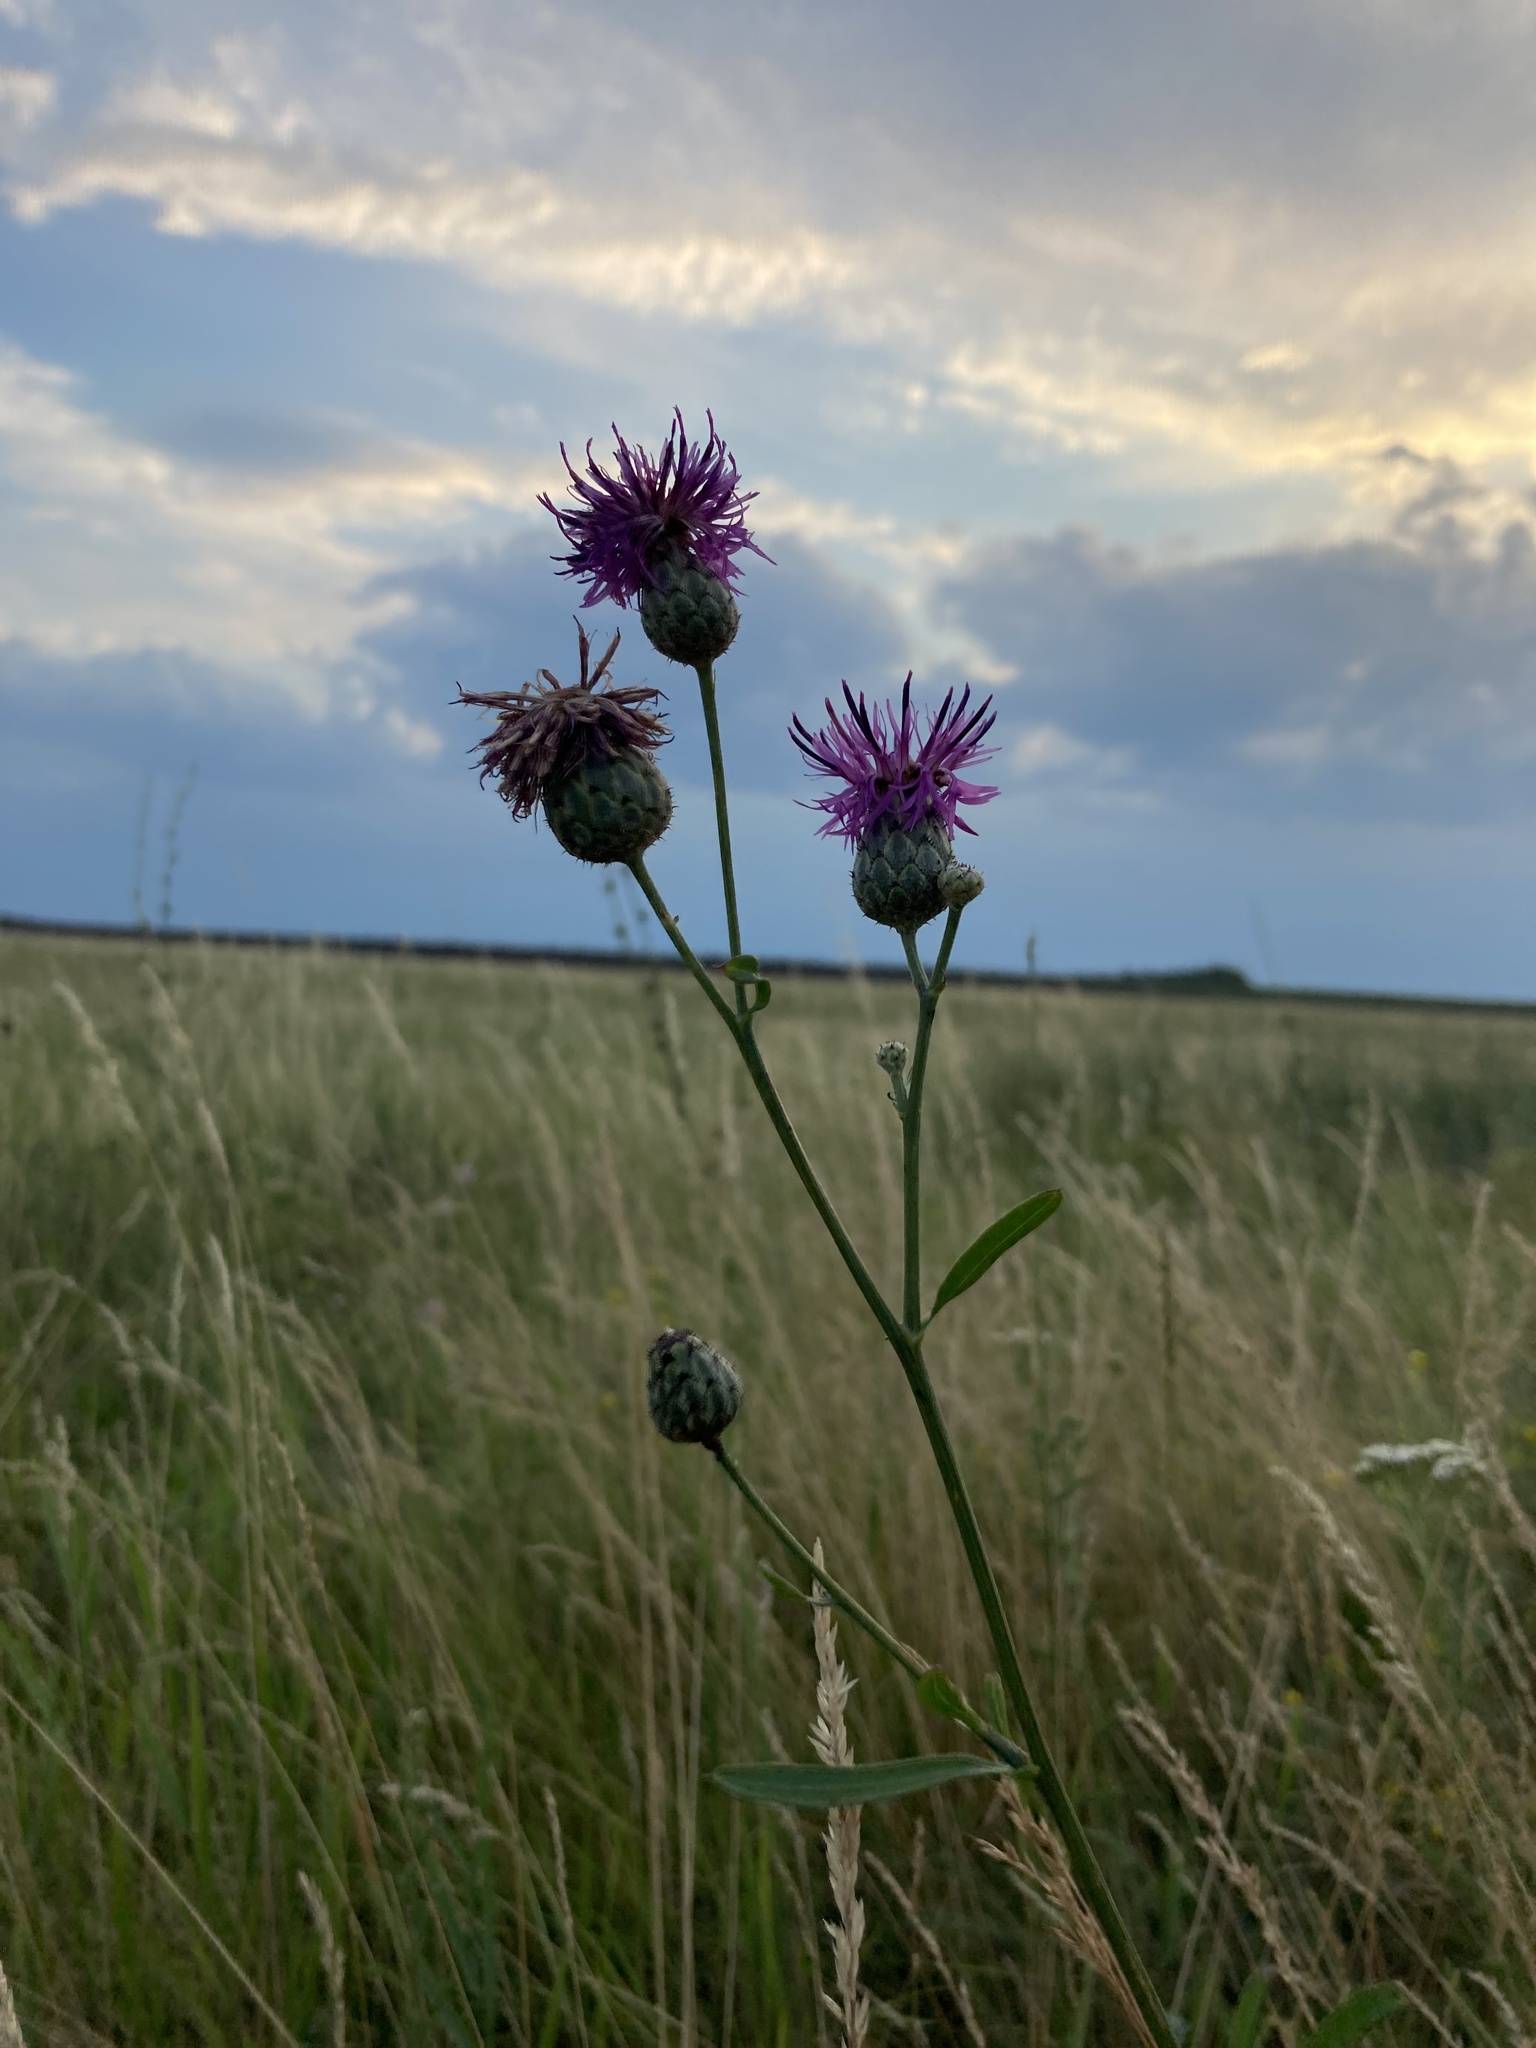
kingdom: Plantae
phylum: Tracheophyta
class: Magnoliopsida
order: Asterales
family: Asteraceae
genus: Centaurea
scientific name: Centaurea scabiosa
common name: Greater knapweed
